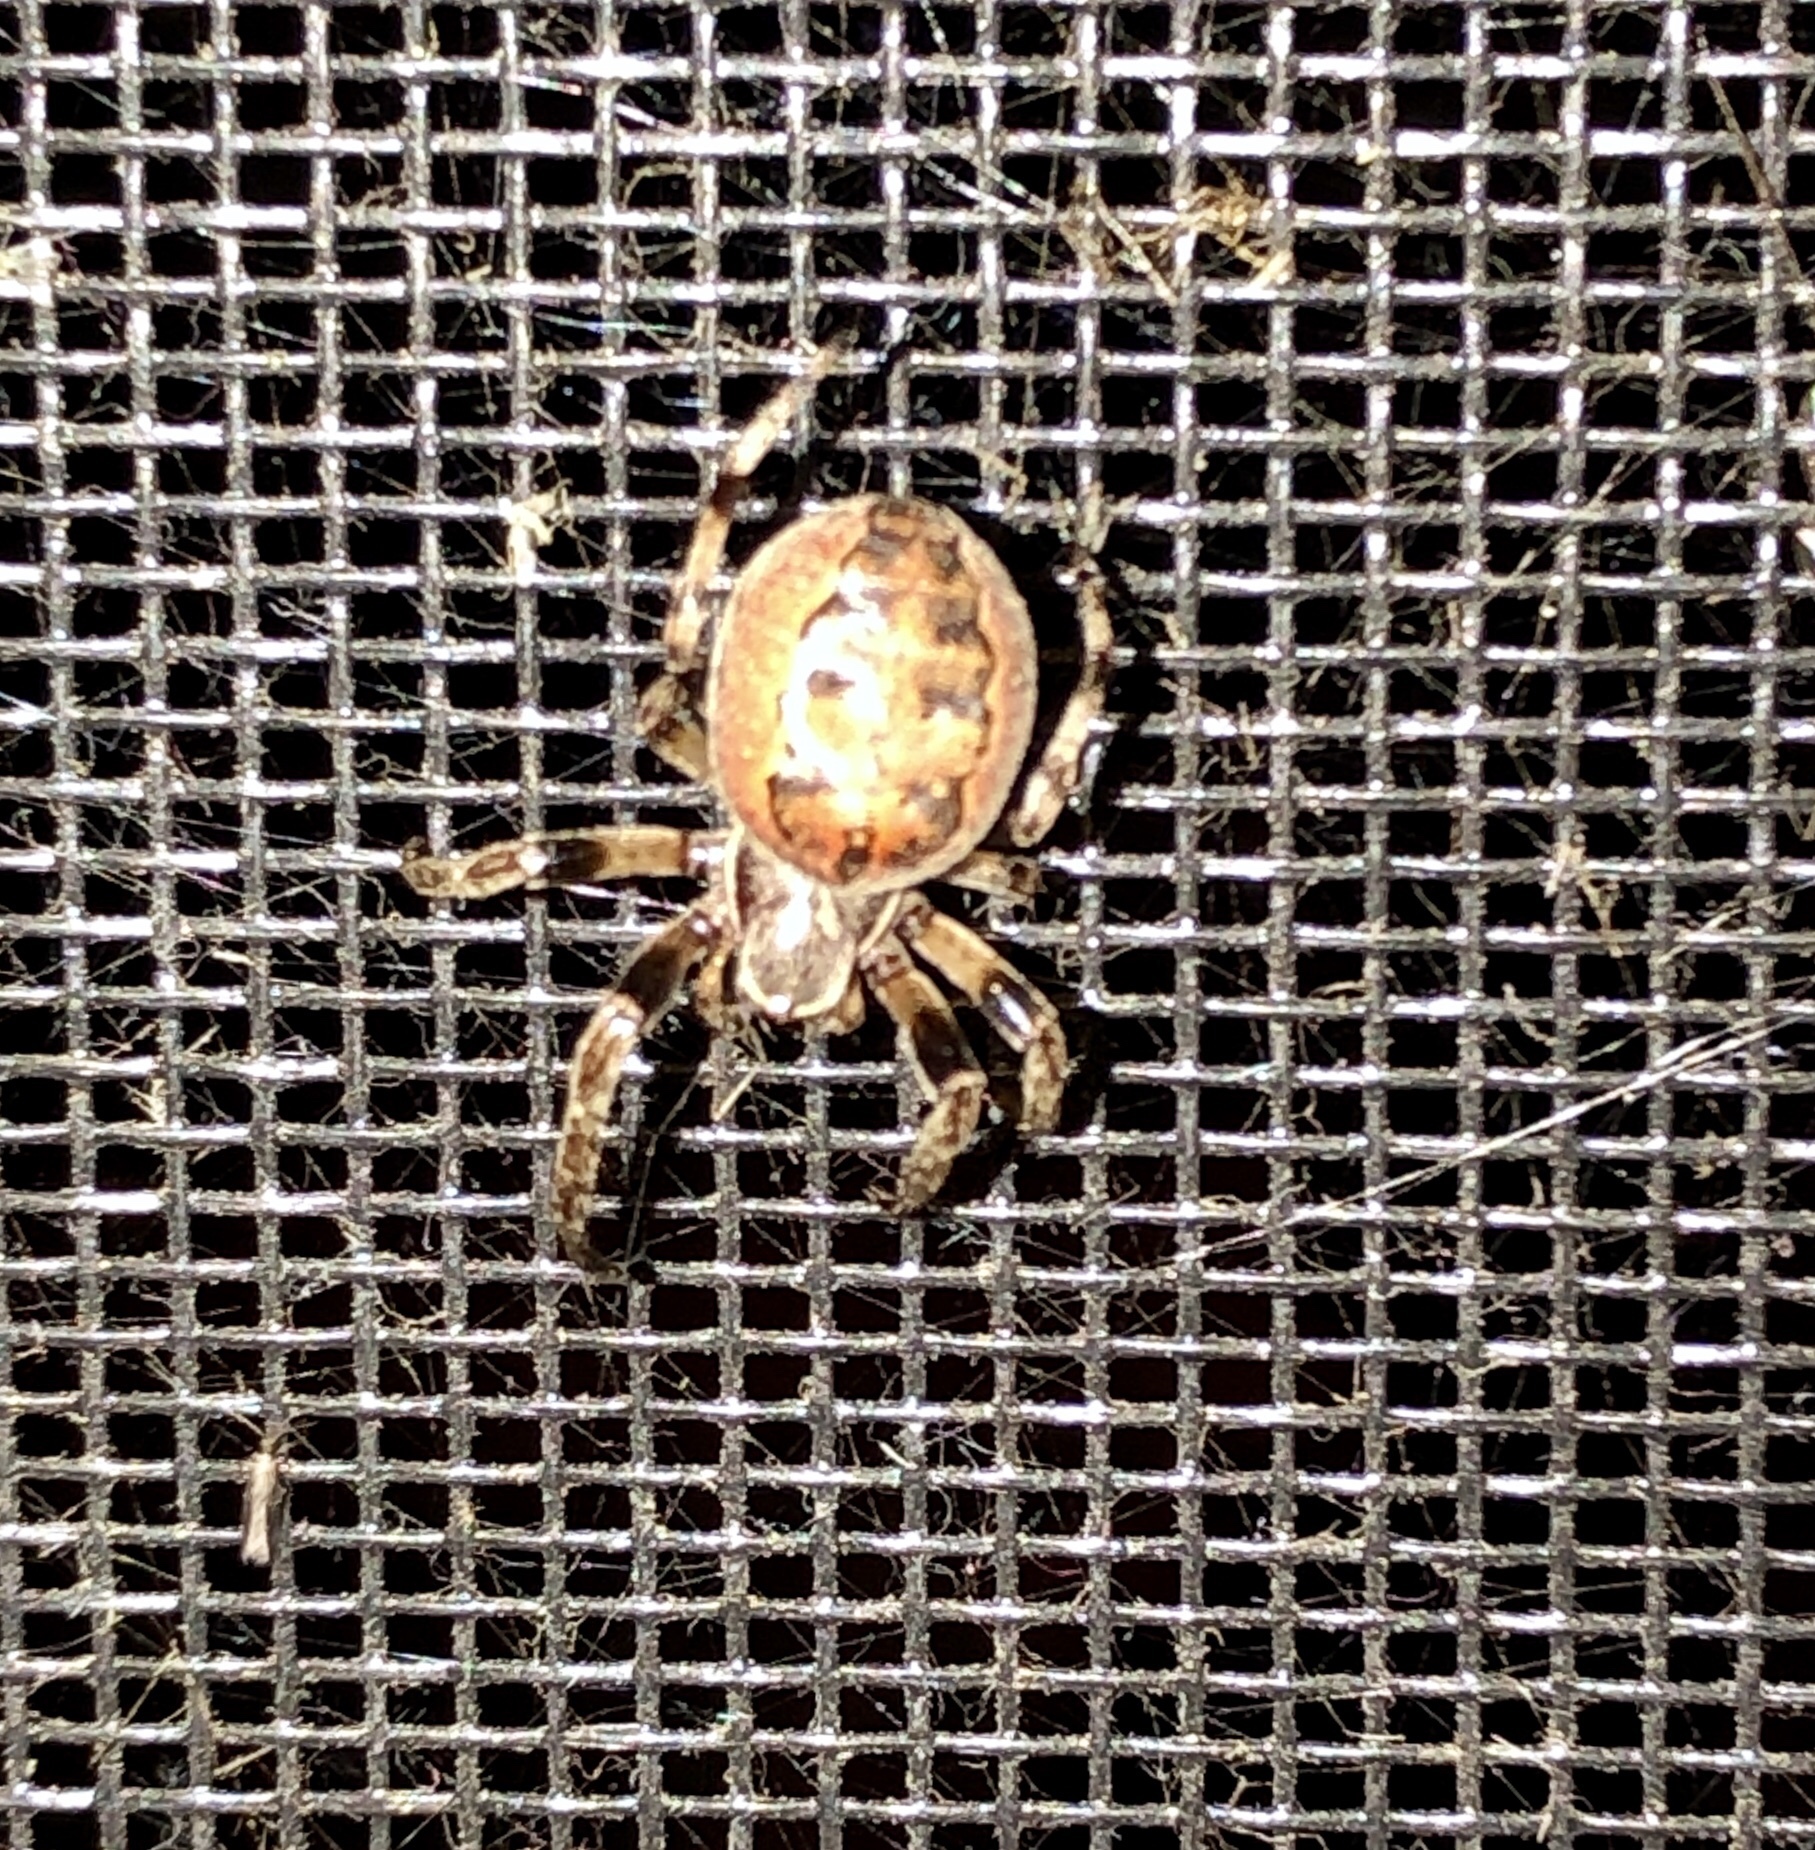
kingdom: Animalia
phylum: Arthropoda
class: Arachnida
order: Araneae
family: Araneidae
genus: Larinioides
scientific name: Larinioides cornutus
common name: Furrow orbweaver
